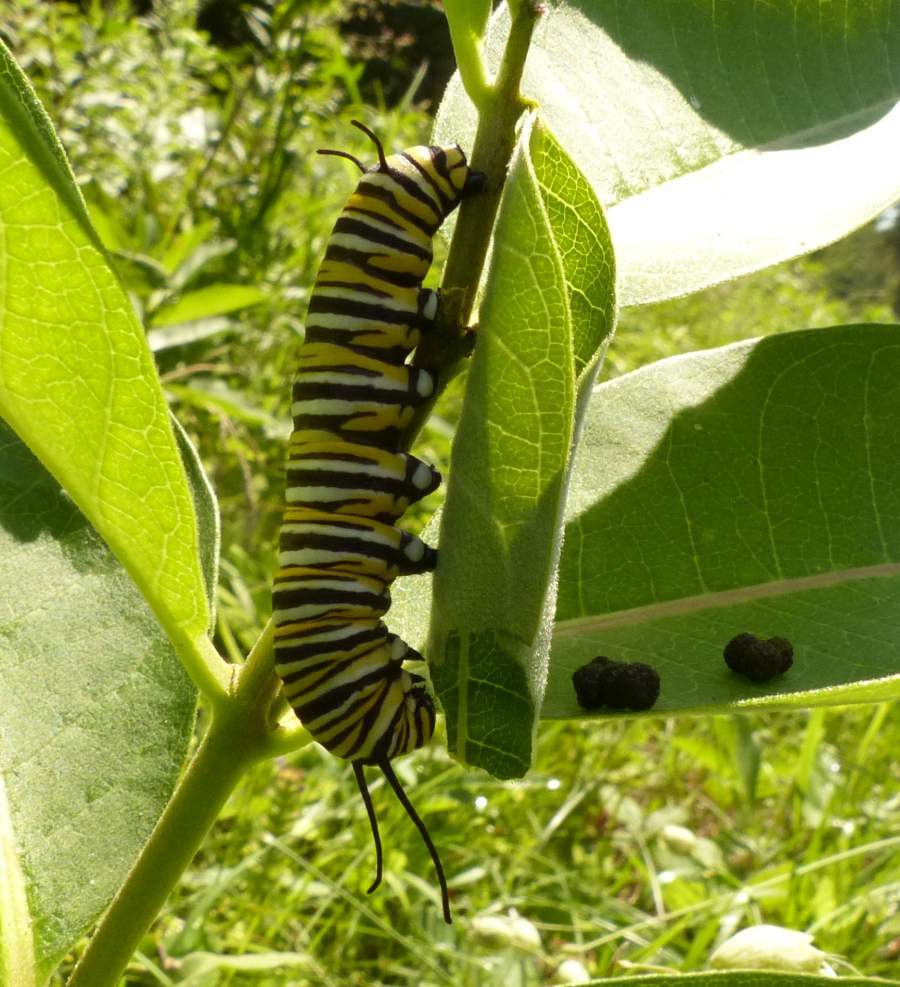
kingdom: Animalia
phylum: Arthropoda
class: Insecta
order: Lepidoptera
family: Nymphalidae
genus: Danaus
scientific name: Danaus plexippus
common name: Monarch
